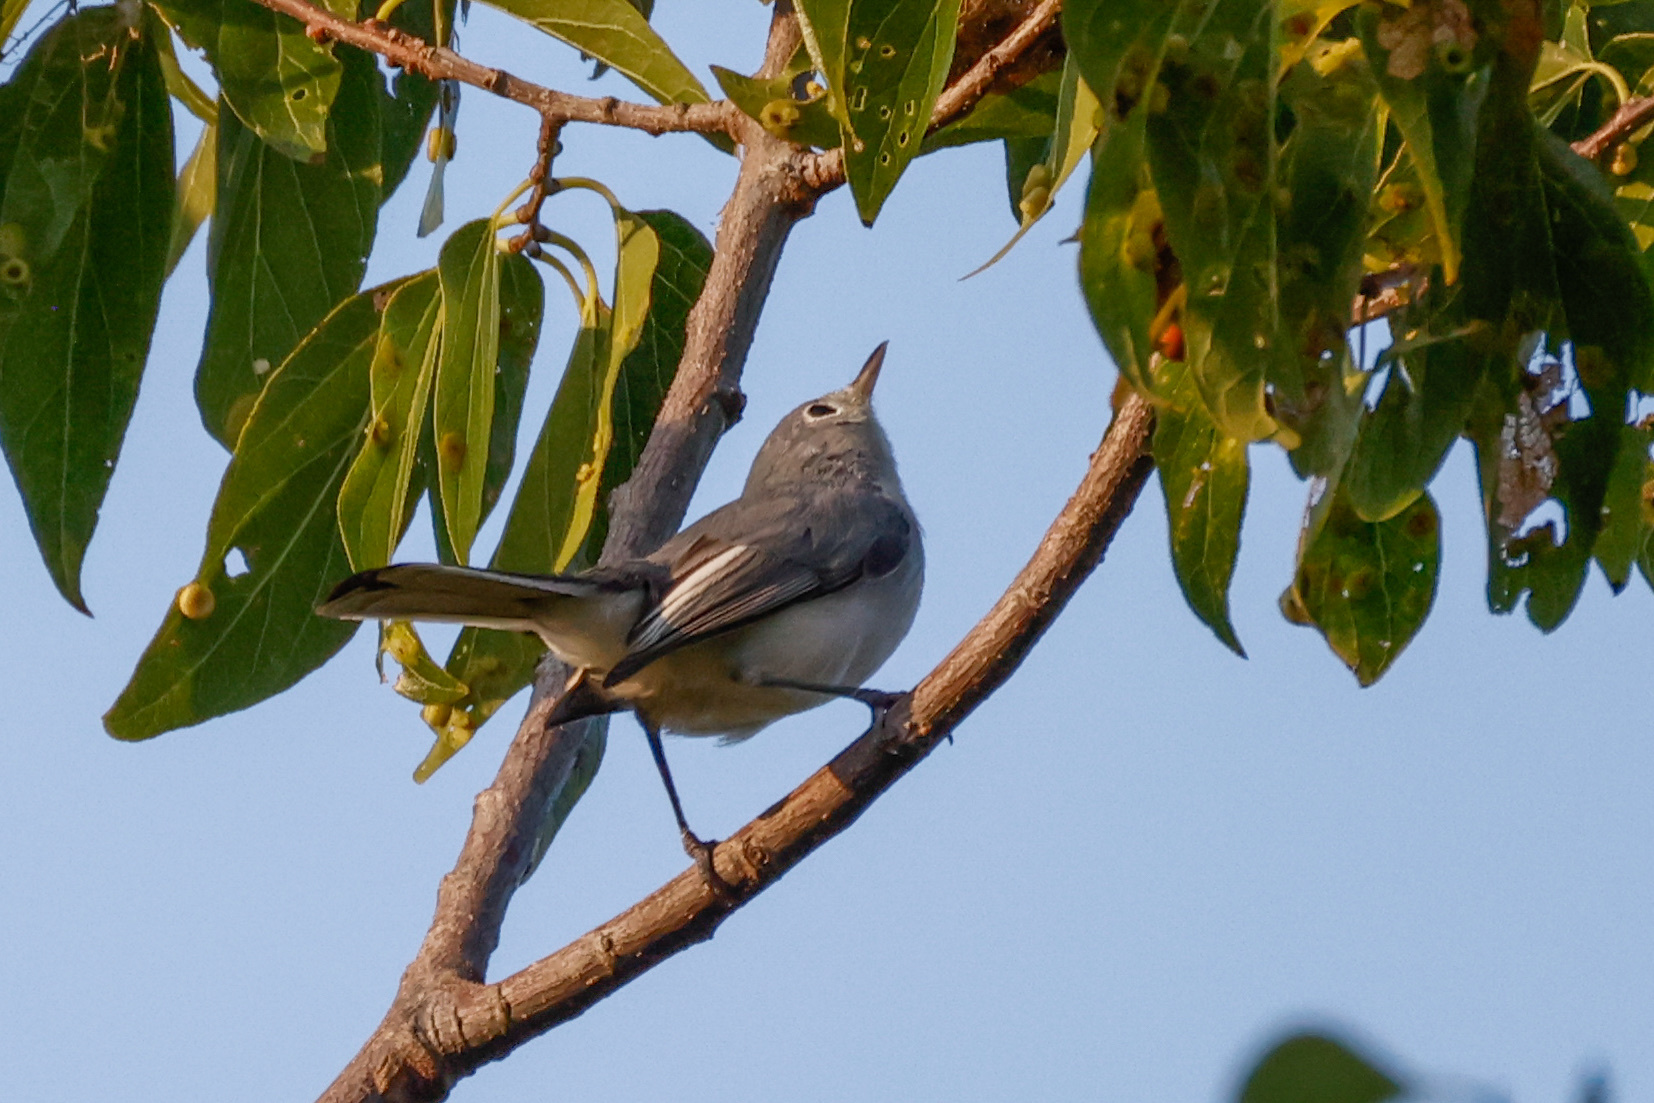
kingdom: Animalia
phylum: Chordata
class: Aves
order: Passeriformes
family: Polioptilidae
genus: Polioptila
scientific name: Polioptila caerulea
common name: Blue-gray gnatcatcher
